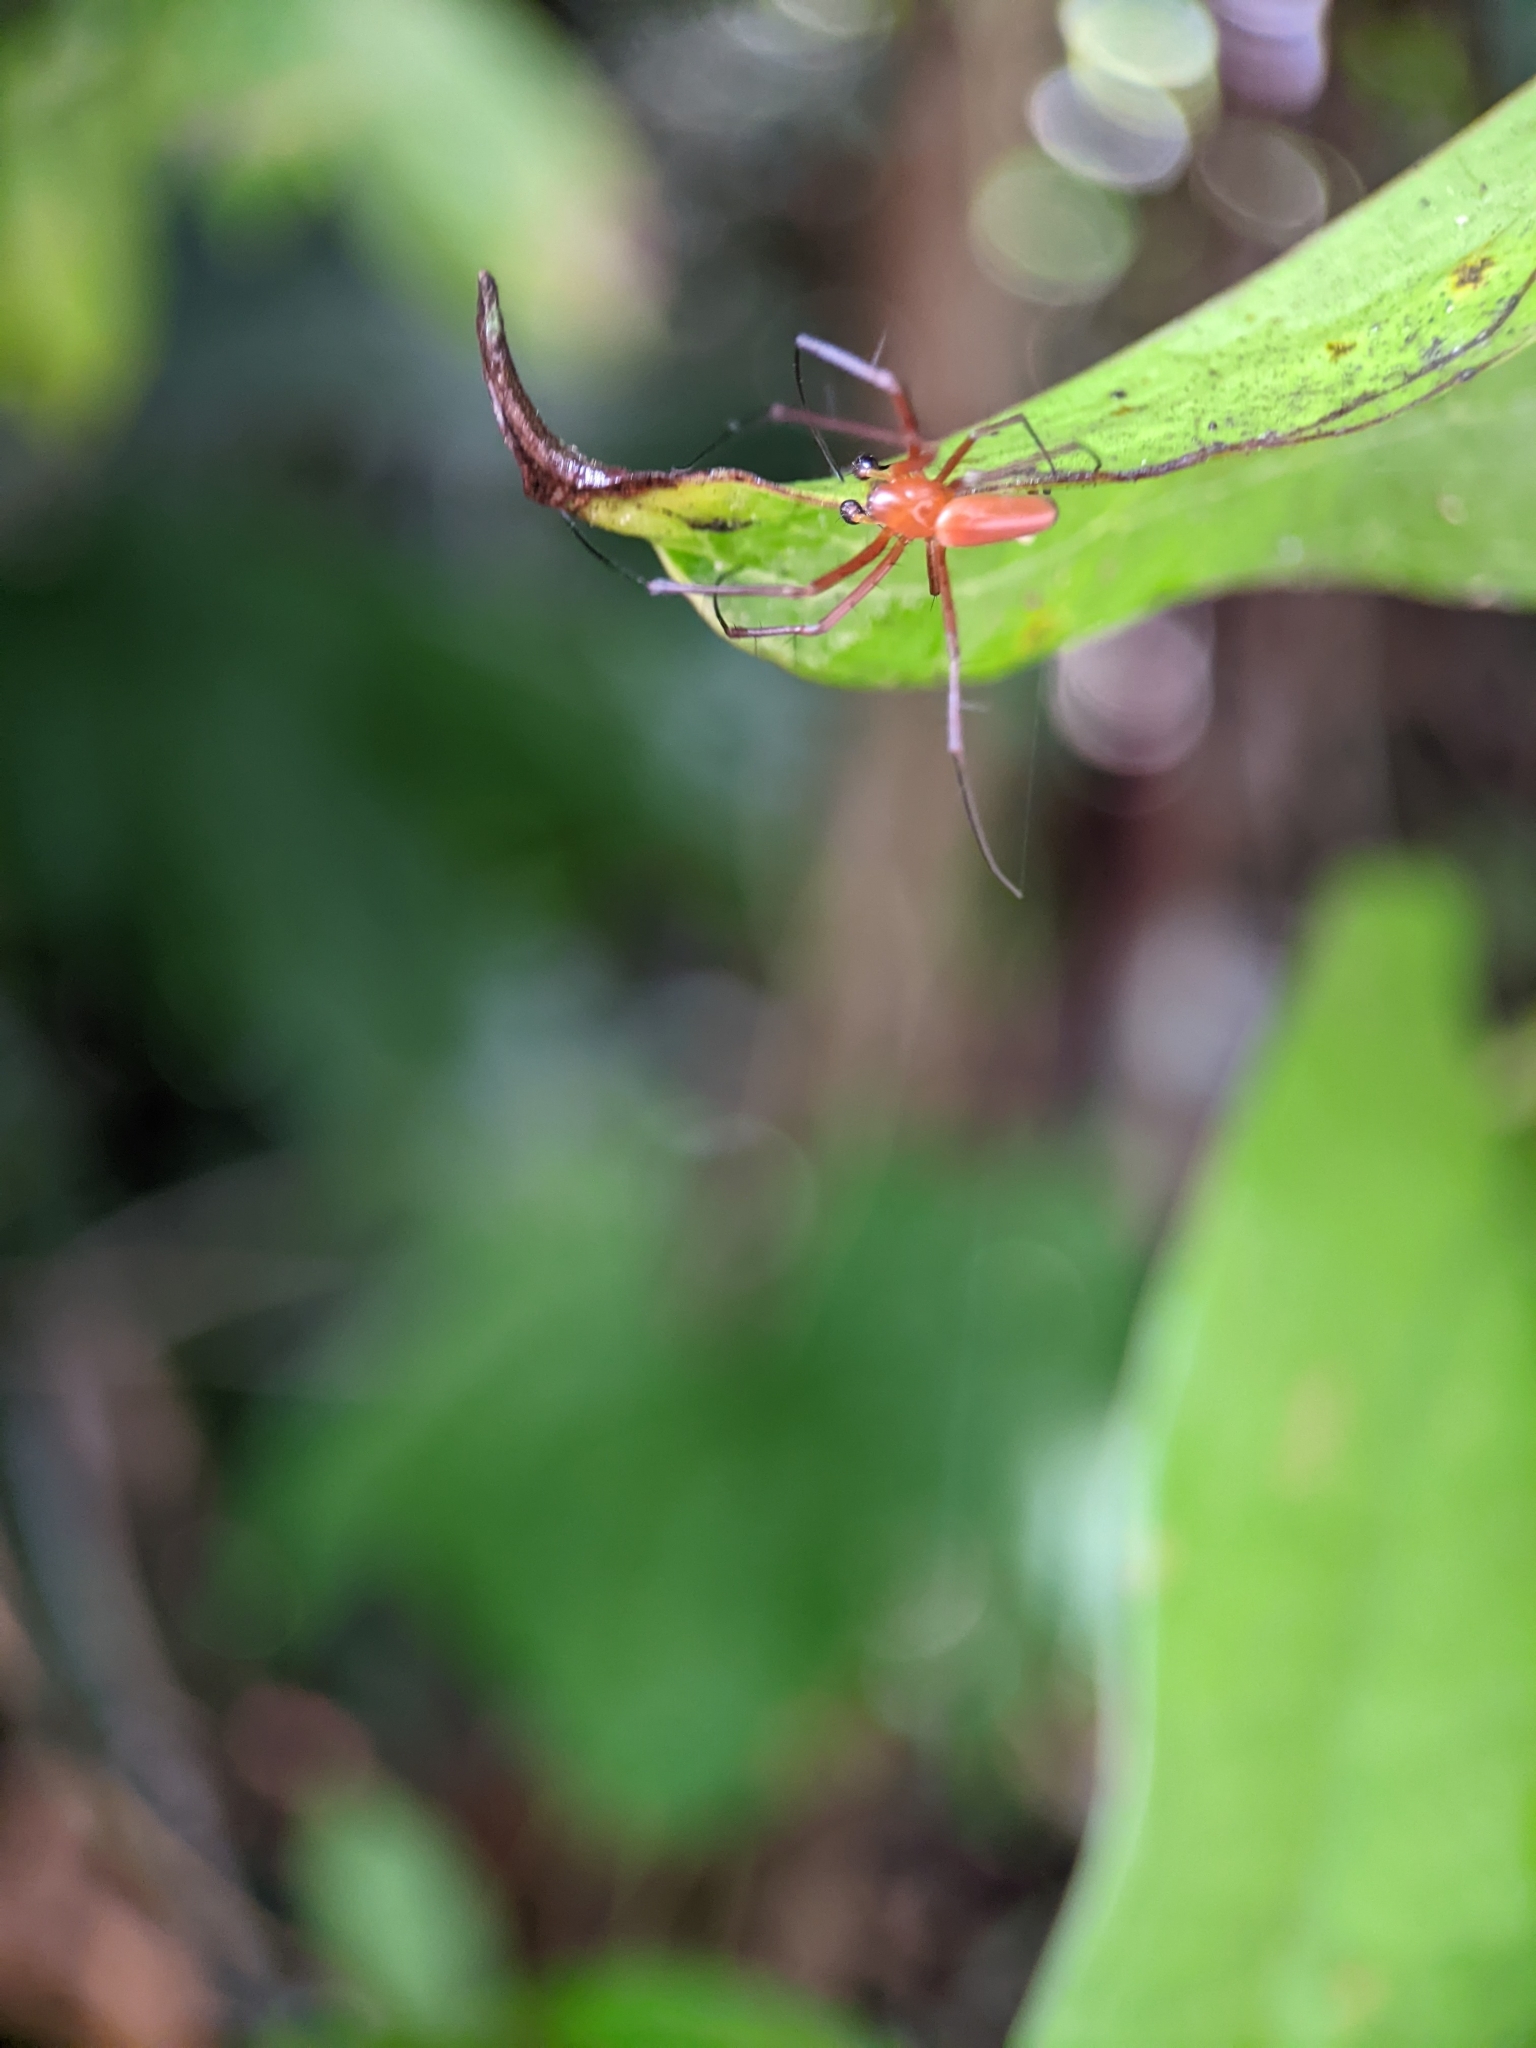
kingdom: Animalia
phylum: Arthropoda
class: Arachnida
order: Araneae
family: Araneidae
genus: Nephila
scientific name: Nephila pilipes
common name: Giant golden orb weaver
